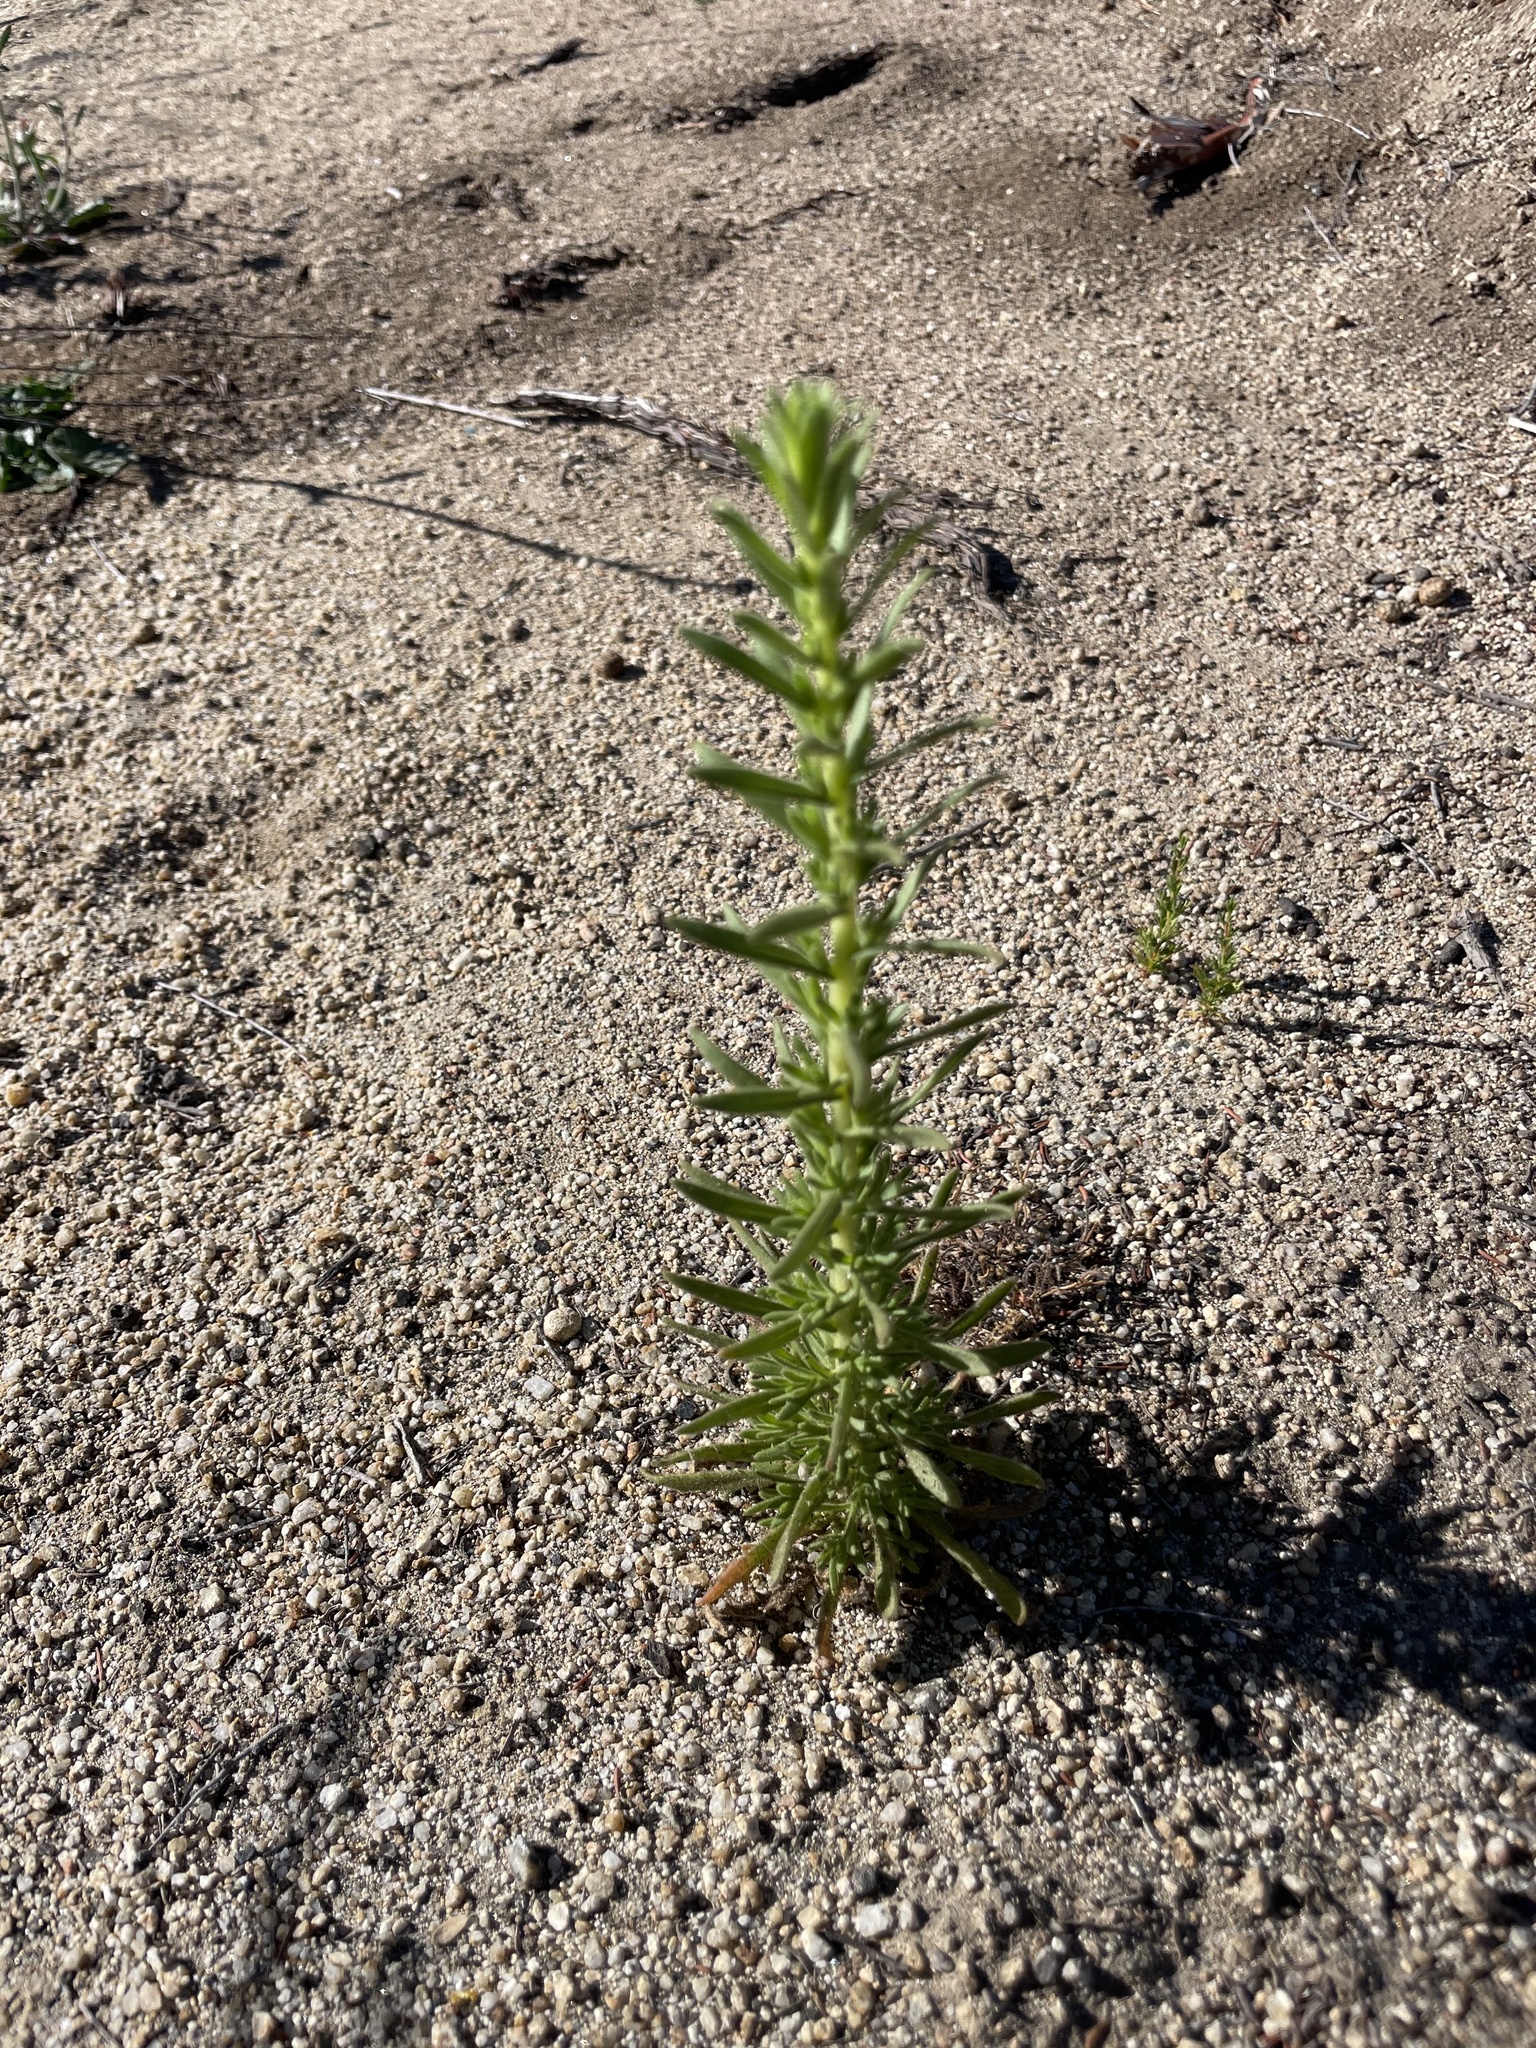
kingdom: Plantae
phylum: Tracheophyta
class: Magnoliopsida
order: Asterales
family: Asteraceae
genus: Deinandra
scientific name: Deinandra floribunda
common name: Tecate tarweed
